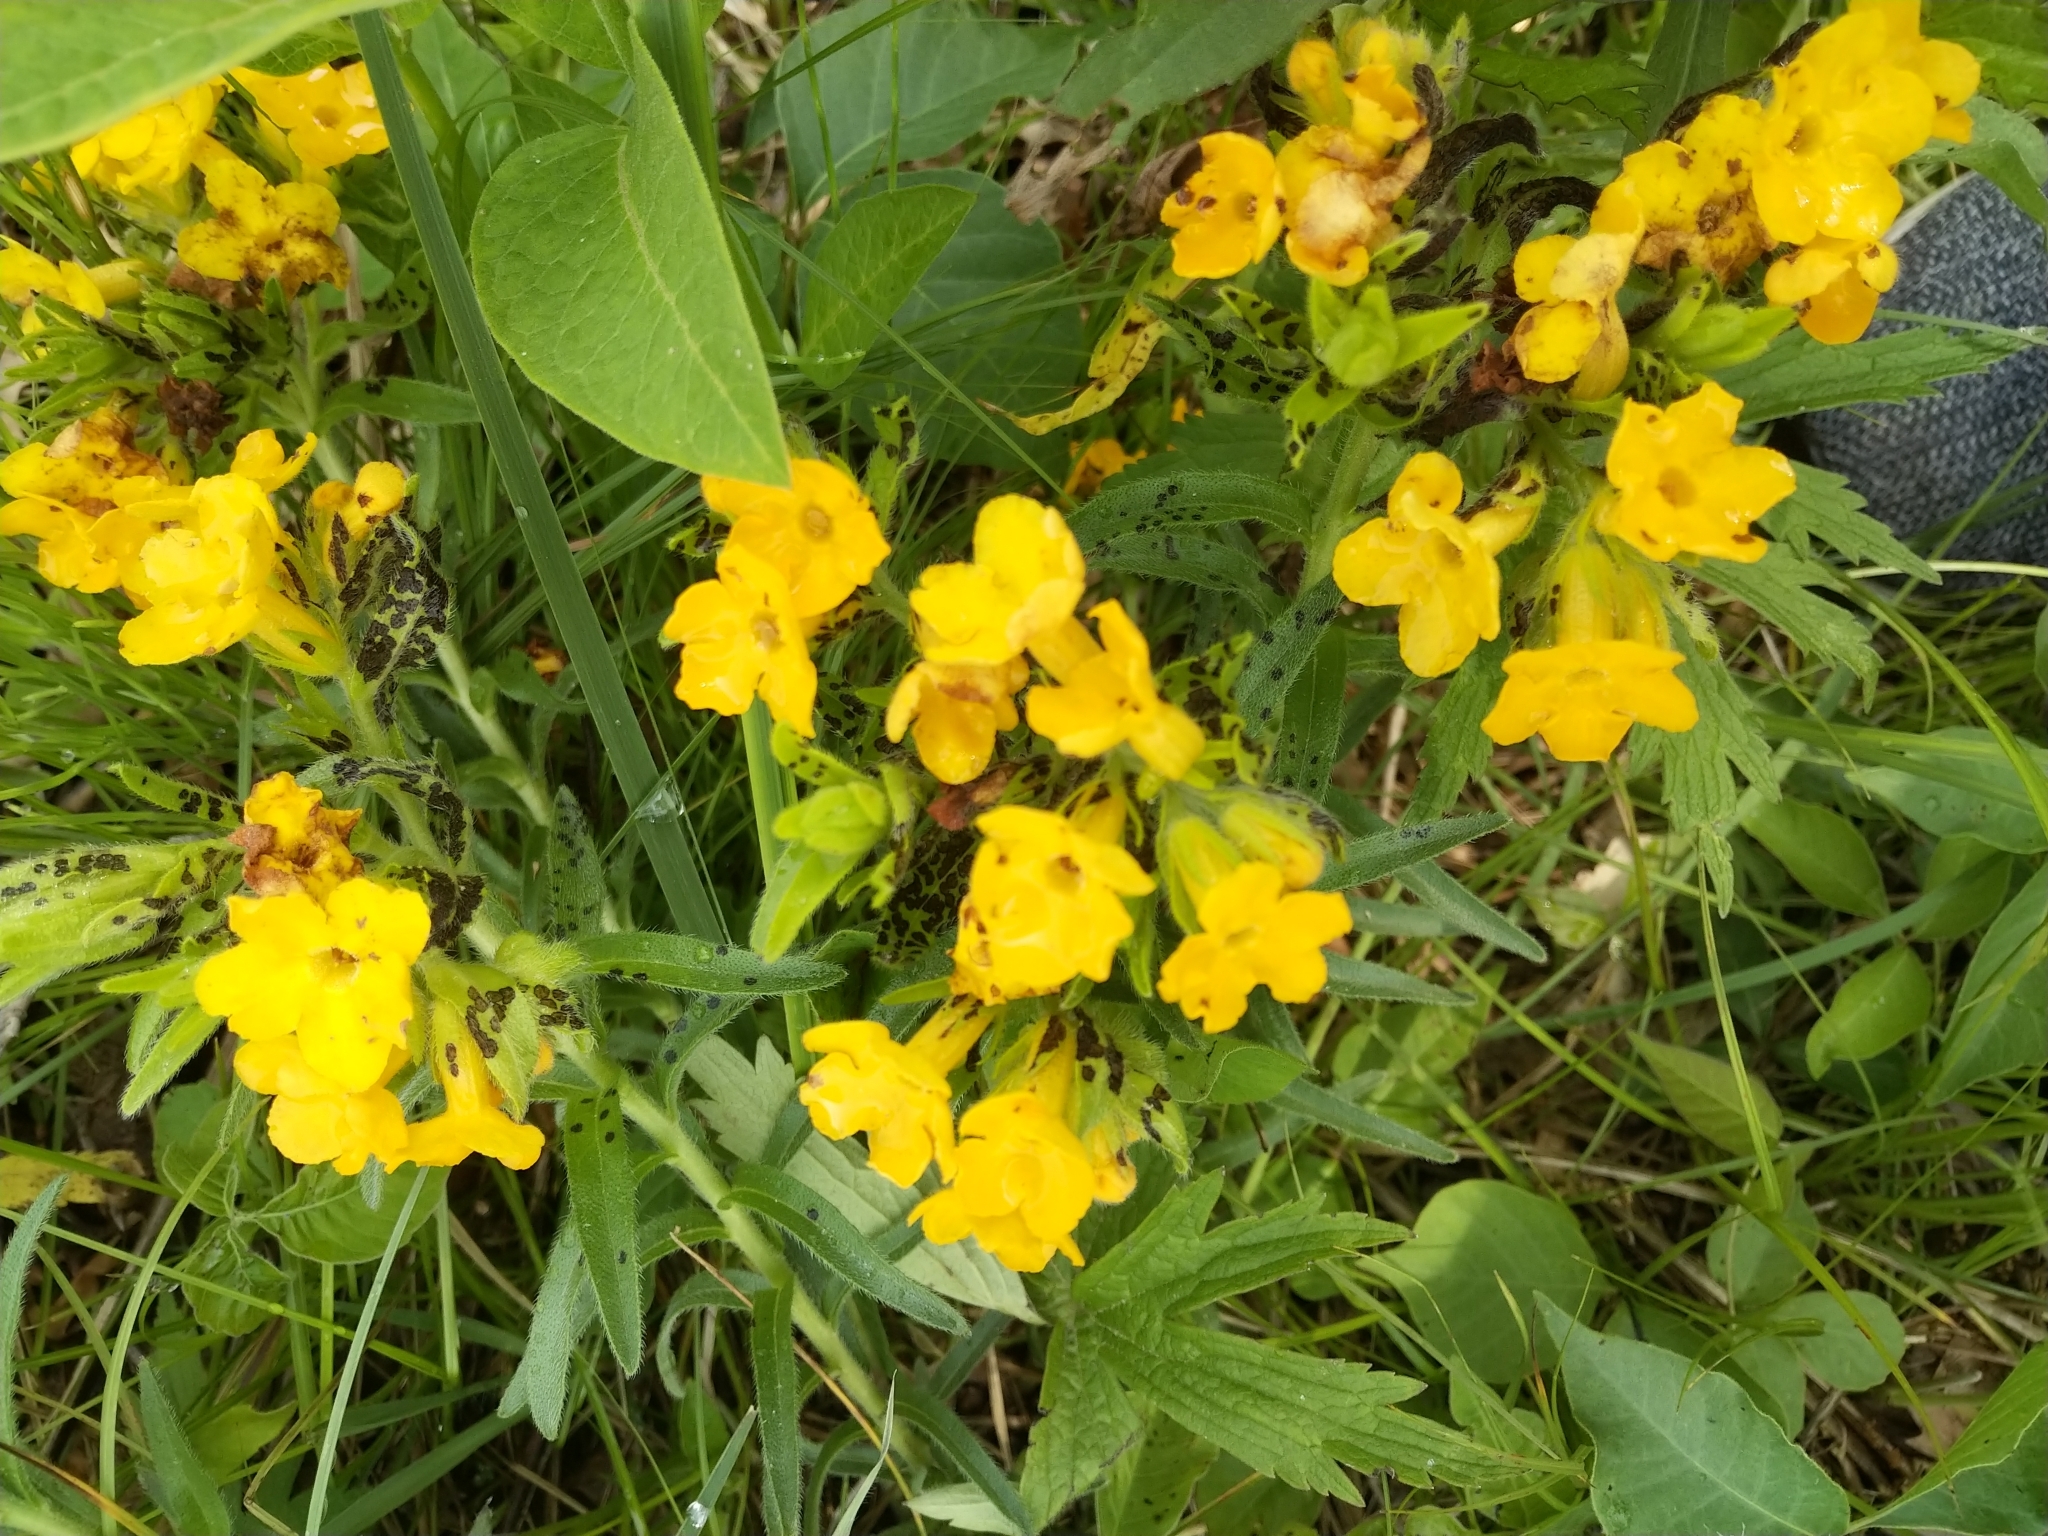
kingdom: Plantae
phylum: Tracheophyta
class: Magnoliopsida
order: Boraginales
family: Boraginaceae
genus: Lithospermum
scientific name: Lithospermum caroliniense
